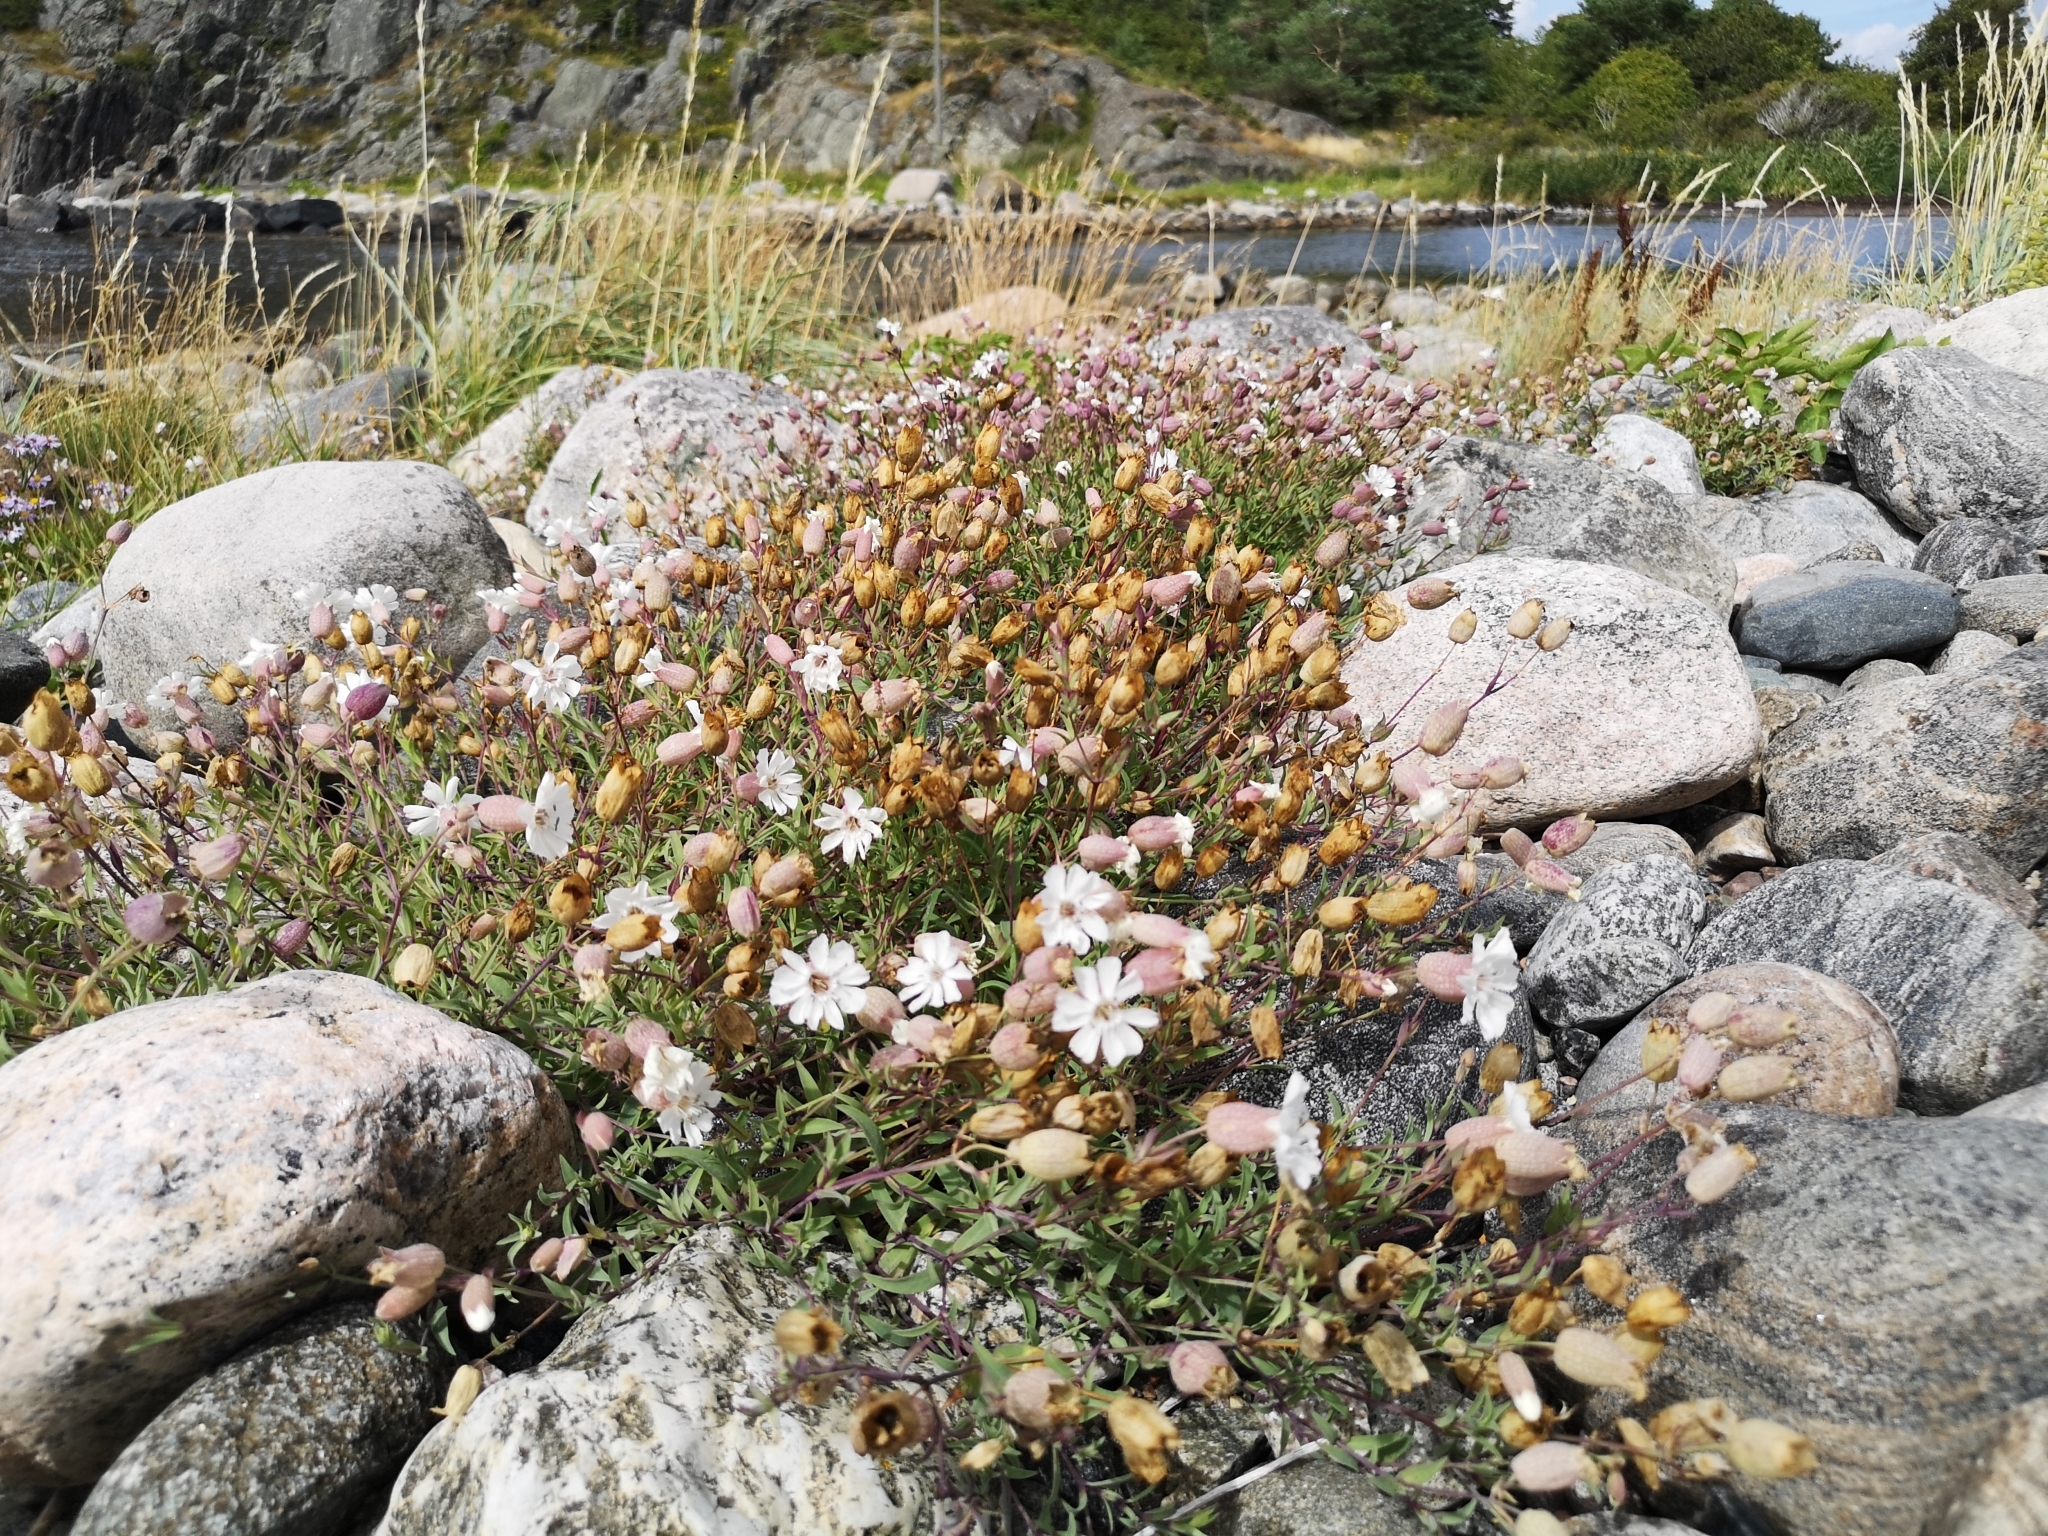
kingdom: Plantae
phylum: Tracheophyta
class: Magnoliopsida
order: Caryophyllales
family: Caryophyllaceae
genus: Silene
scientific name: Silene uniflora
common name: Sea campion
